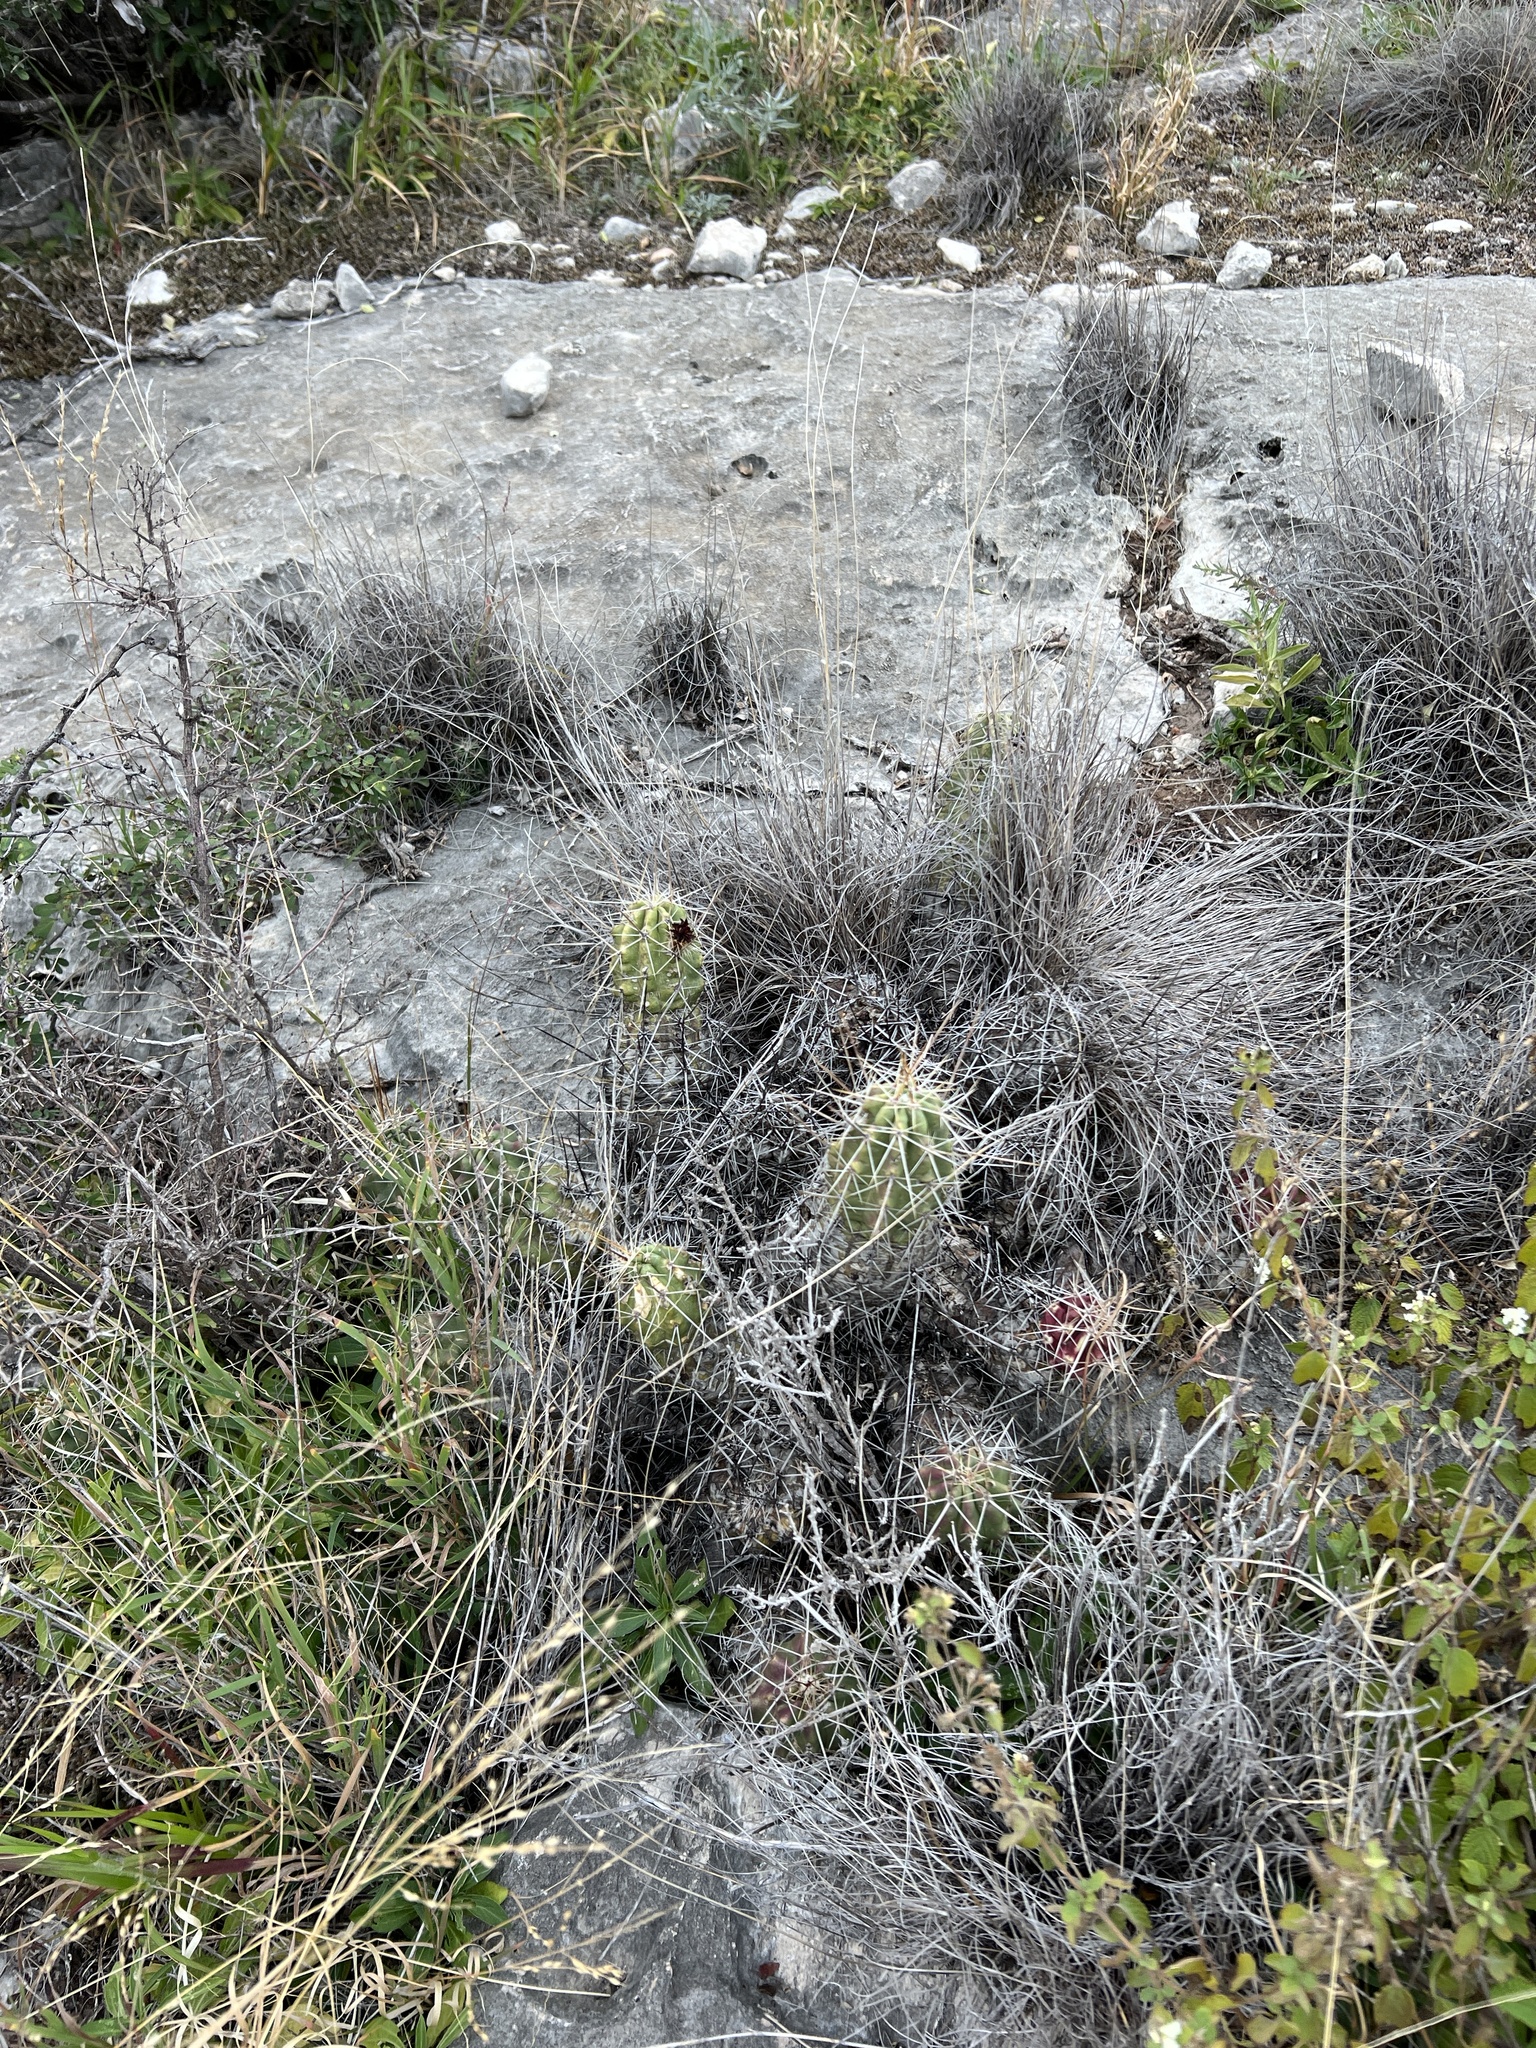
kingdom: Plantae
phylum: Tracheophyta
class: Magnoliopsida
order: Caryophyllales
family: Cactaceae
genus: Echinocereus
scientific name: Echinocereus enneacanthus
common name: Pitaya
